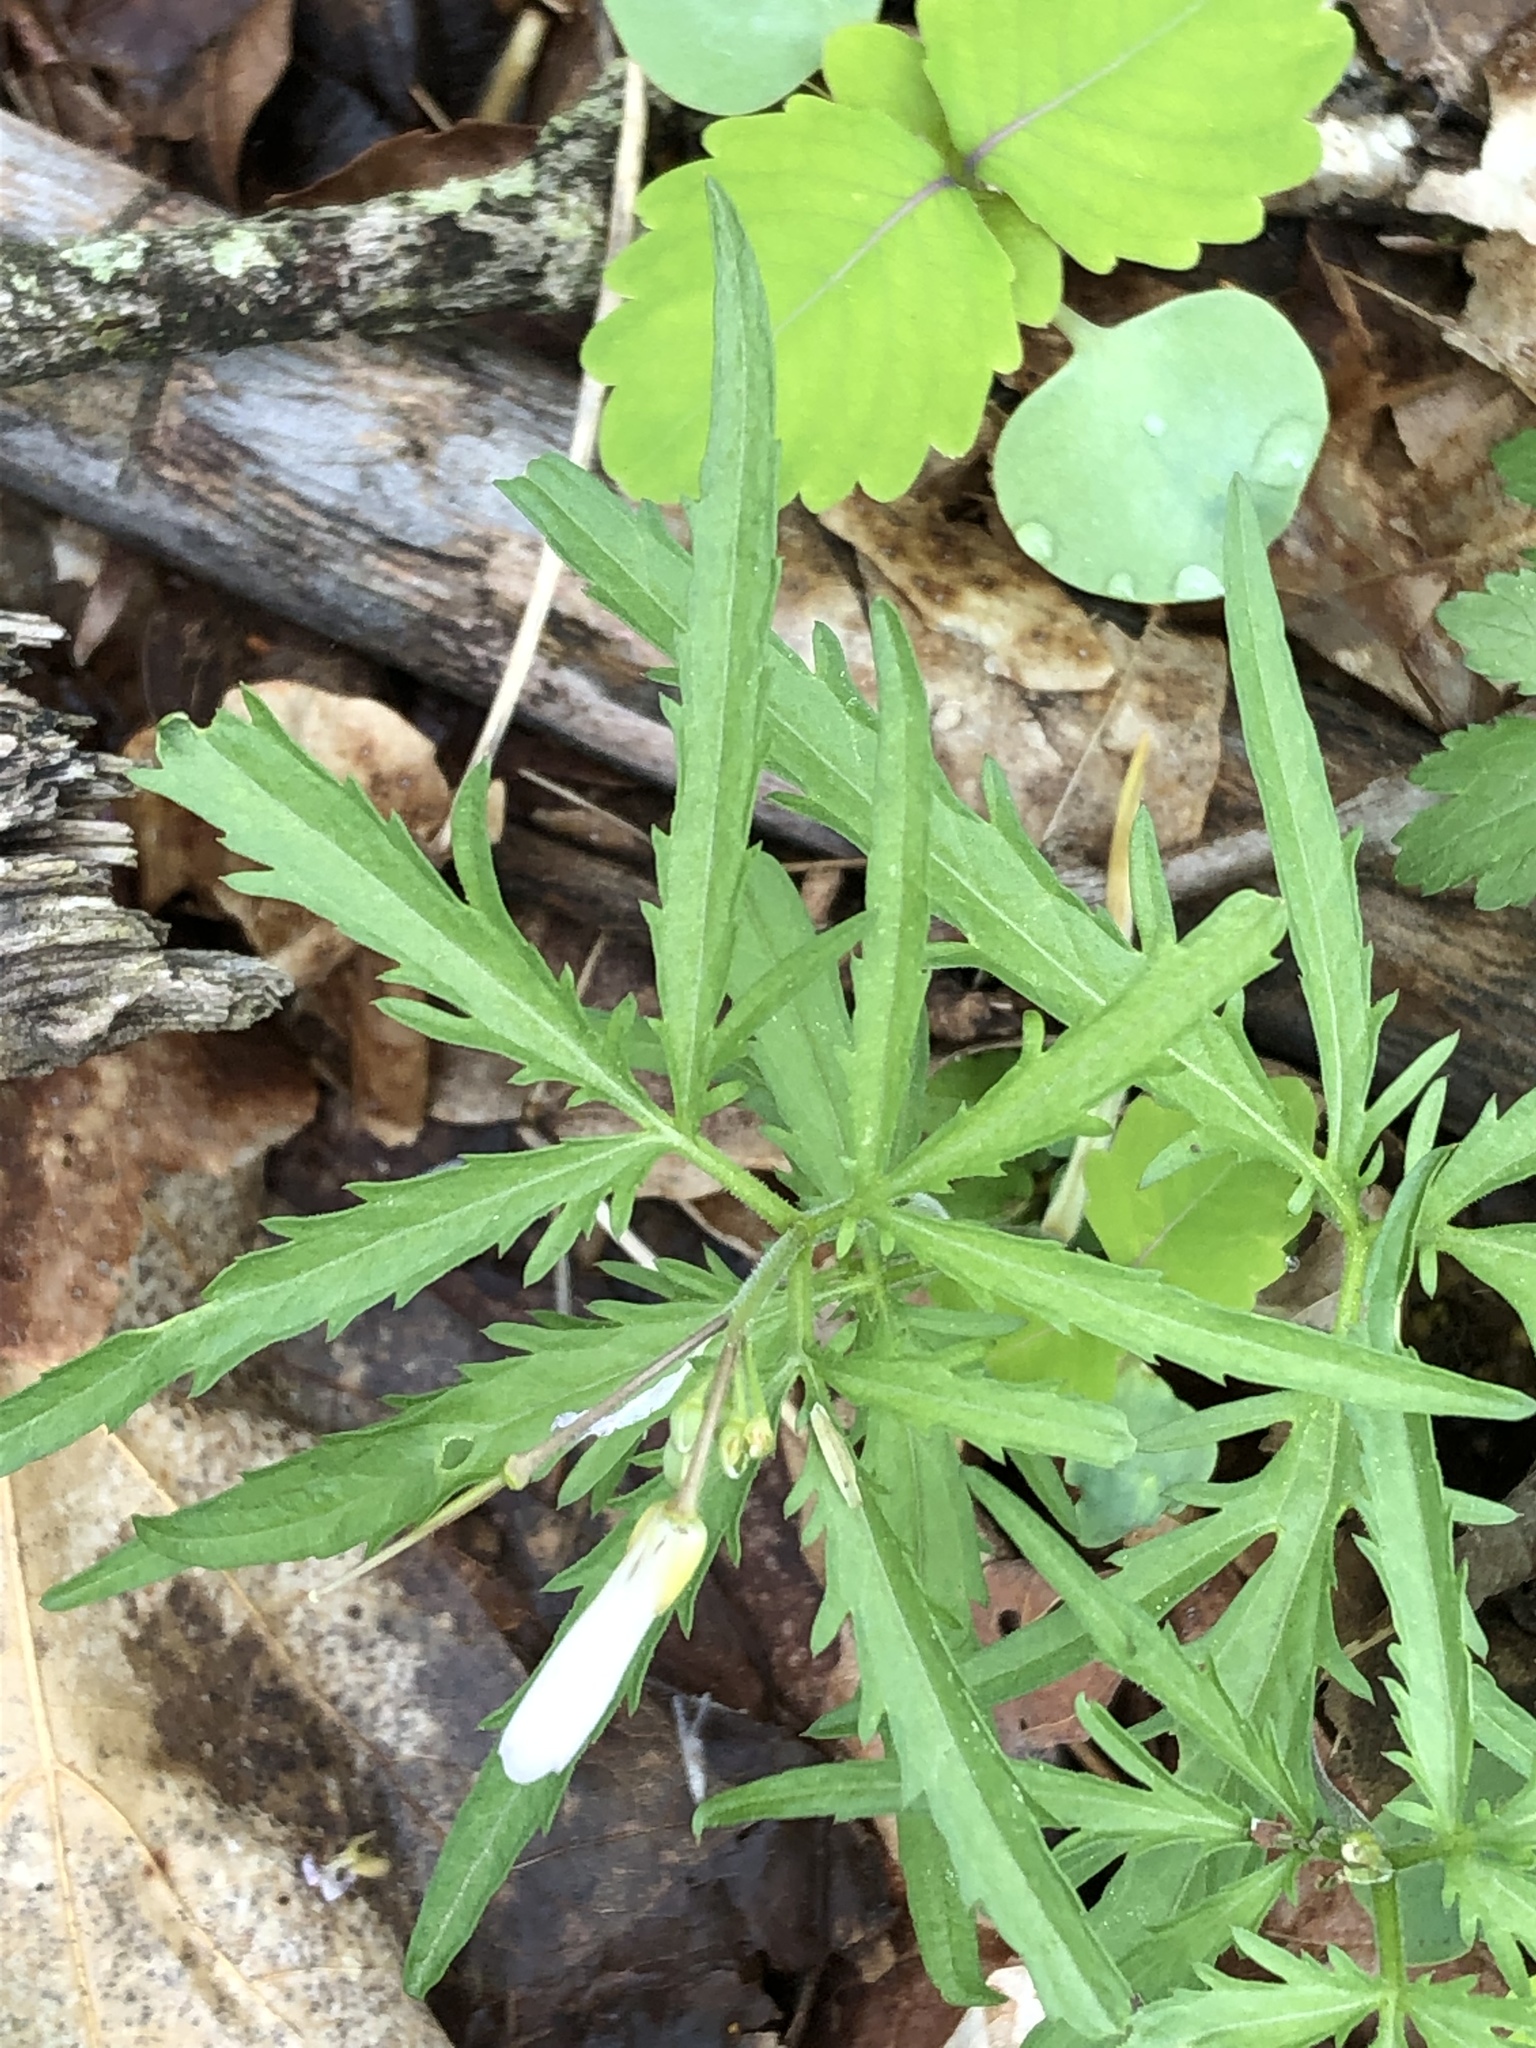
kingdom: Plantae
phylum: Tracheophyta
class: Magnoliopsida
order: Brassicales
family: Brassicaceae
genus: Cardamine
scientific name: Cardamine concatenata
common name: Cut-leaf toothcup
